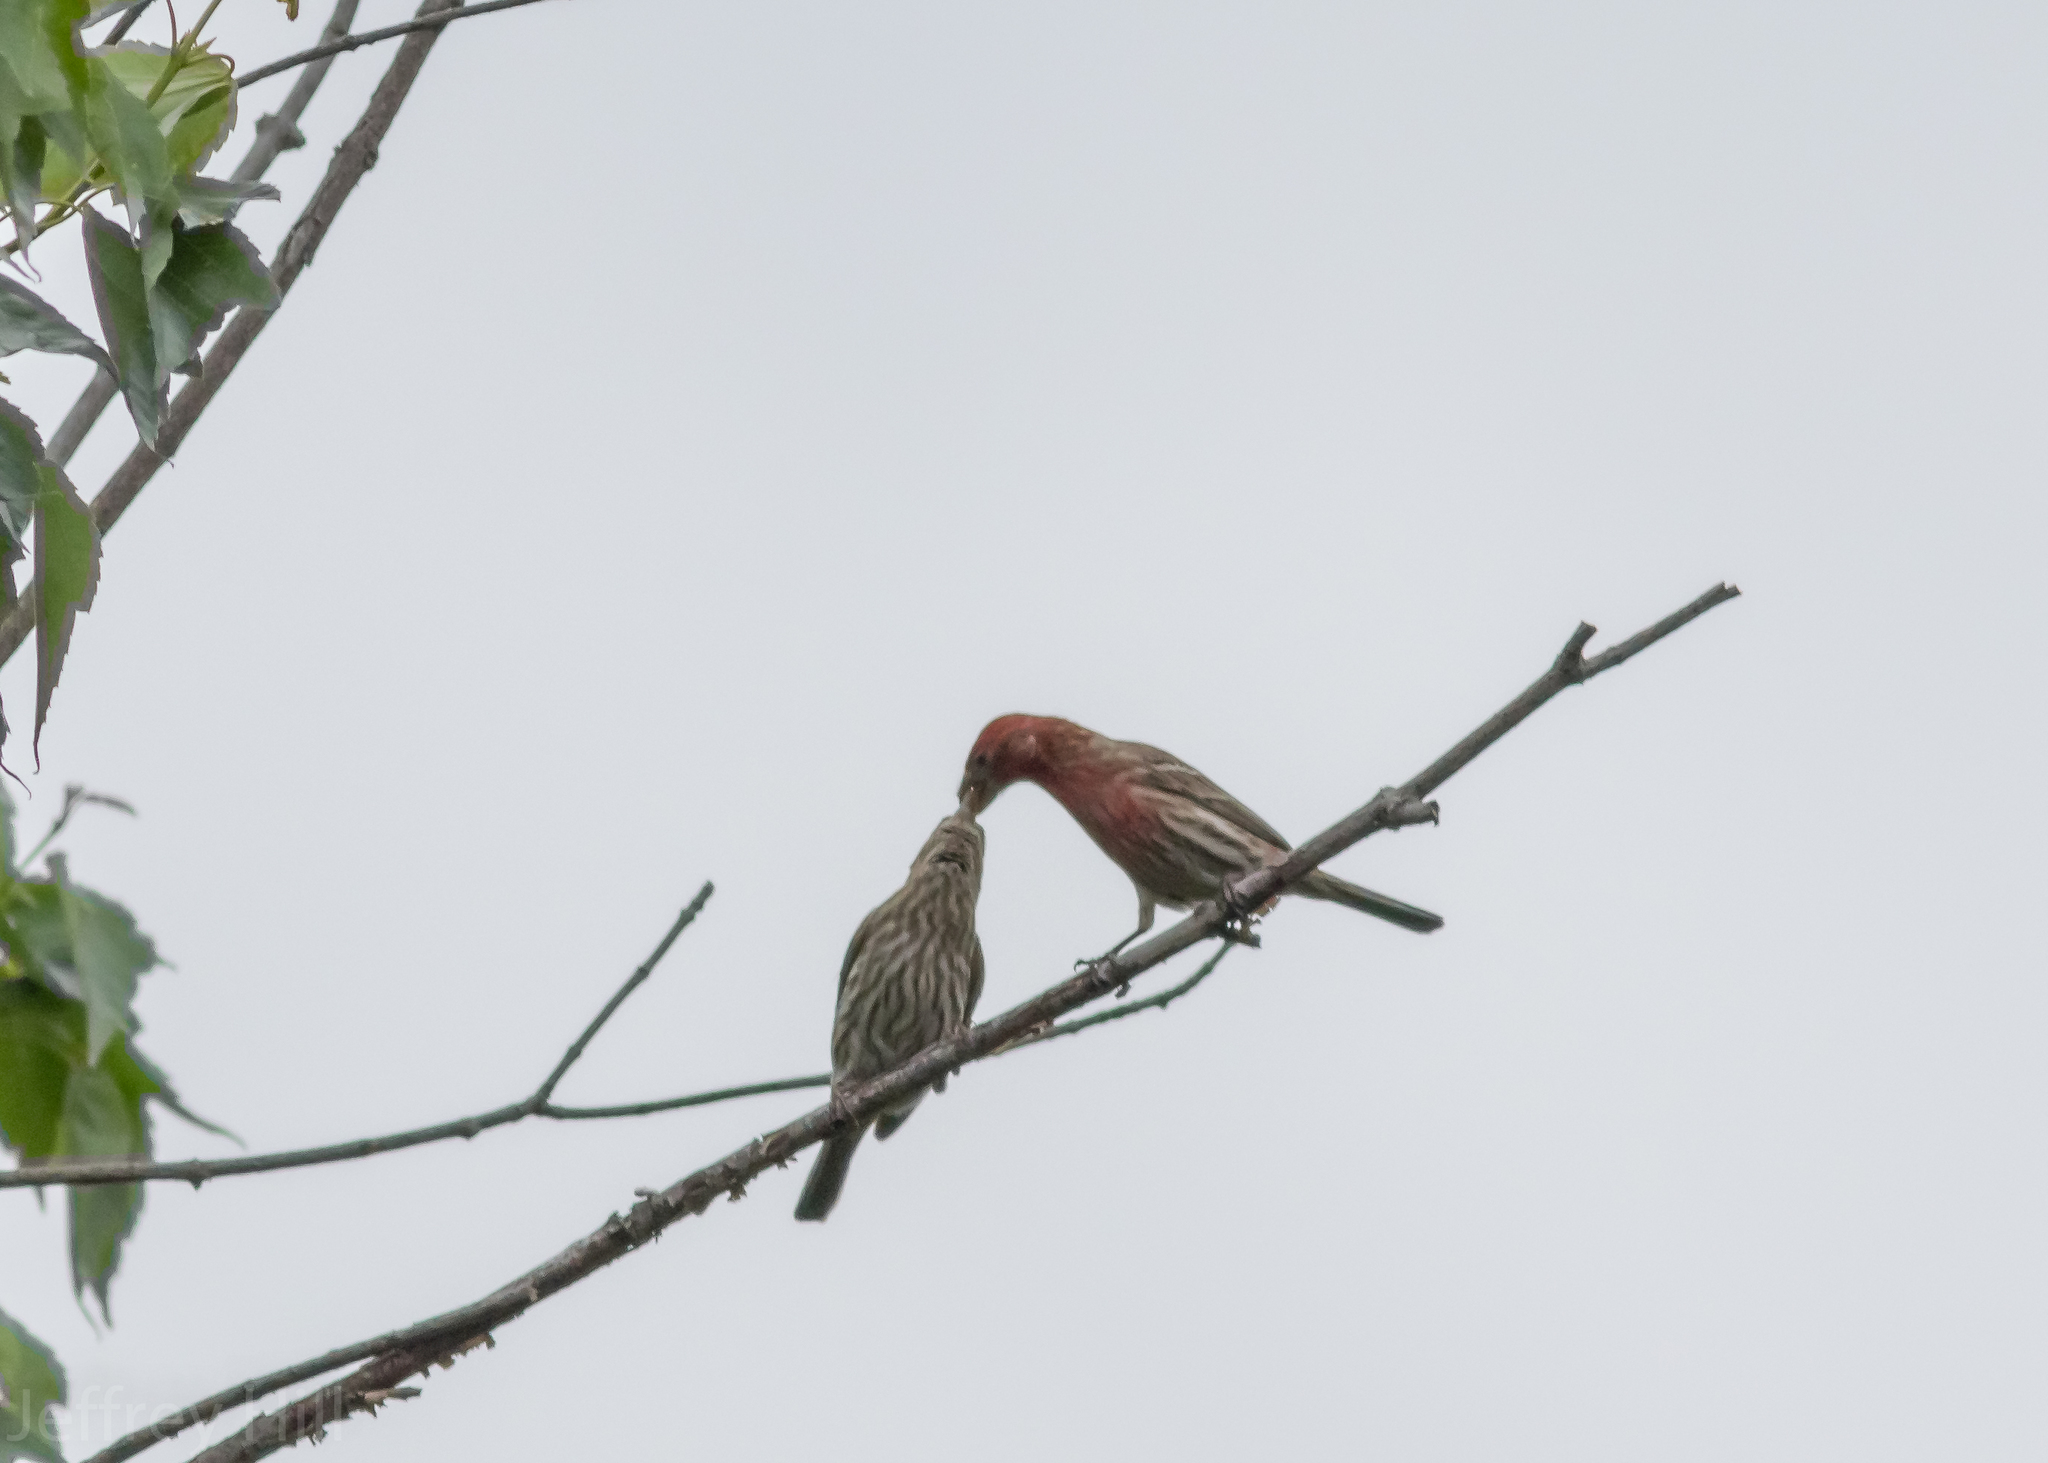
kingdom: Animalia
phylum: Chordata
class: Aves
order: Passeriformes
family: Fringillidae
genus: Haemorhous
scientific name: Haemorhous mexicanus
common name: House finch
